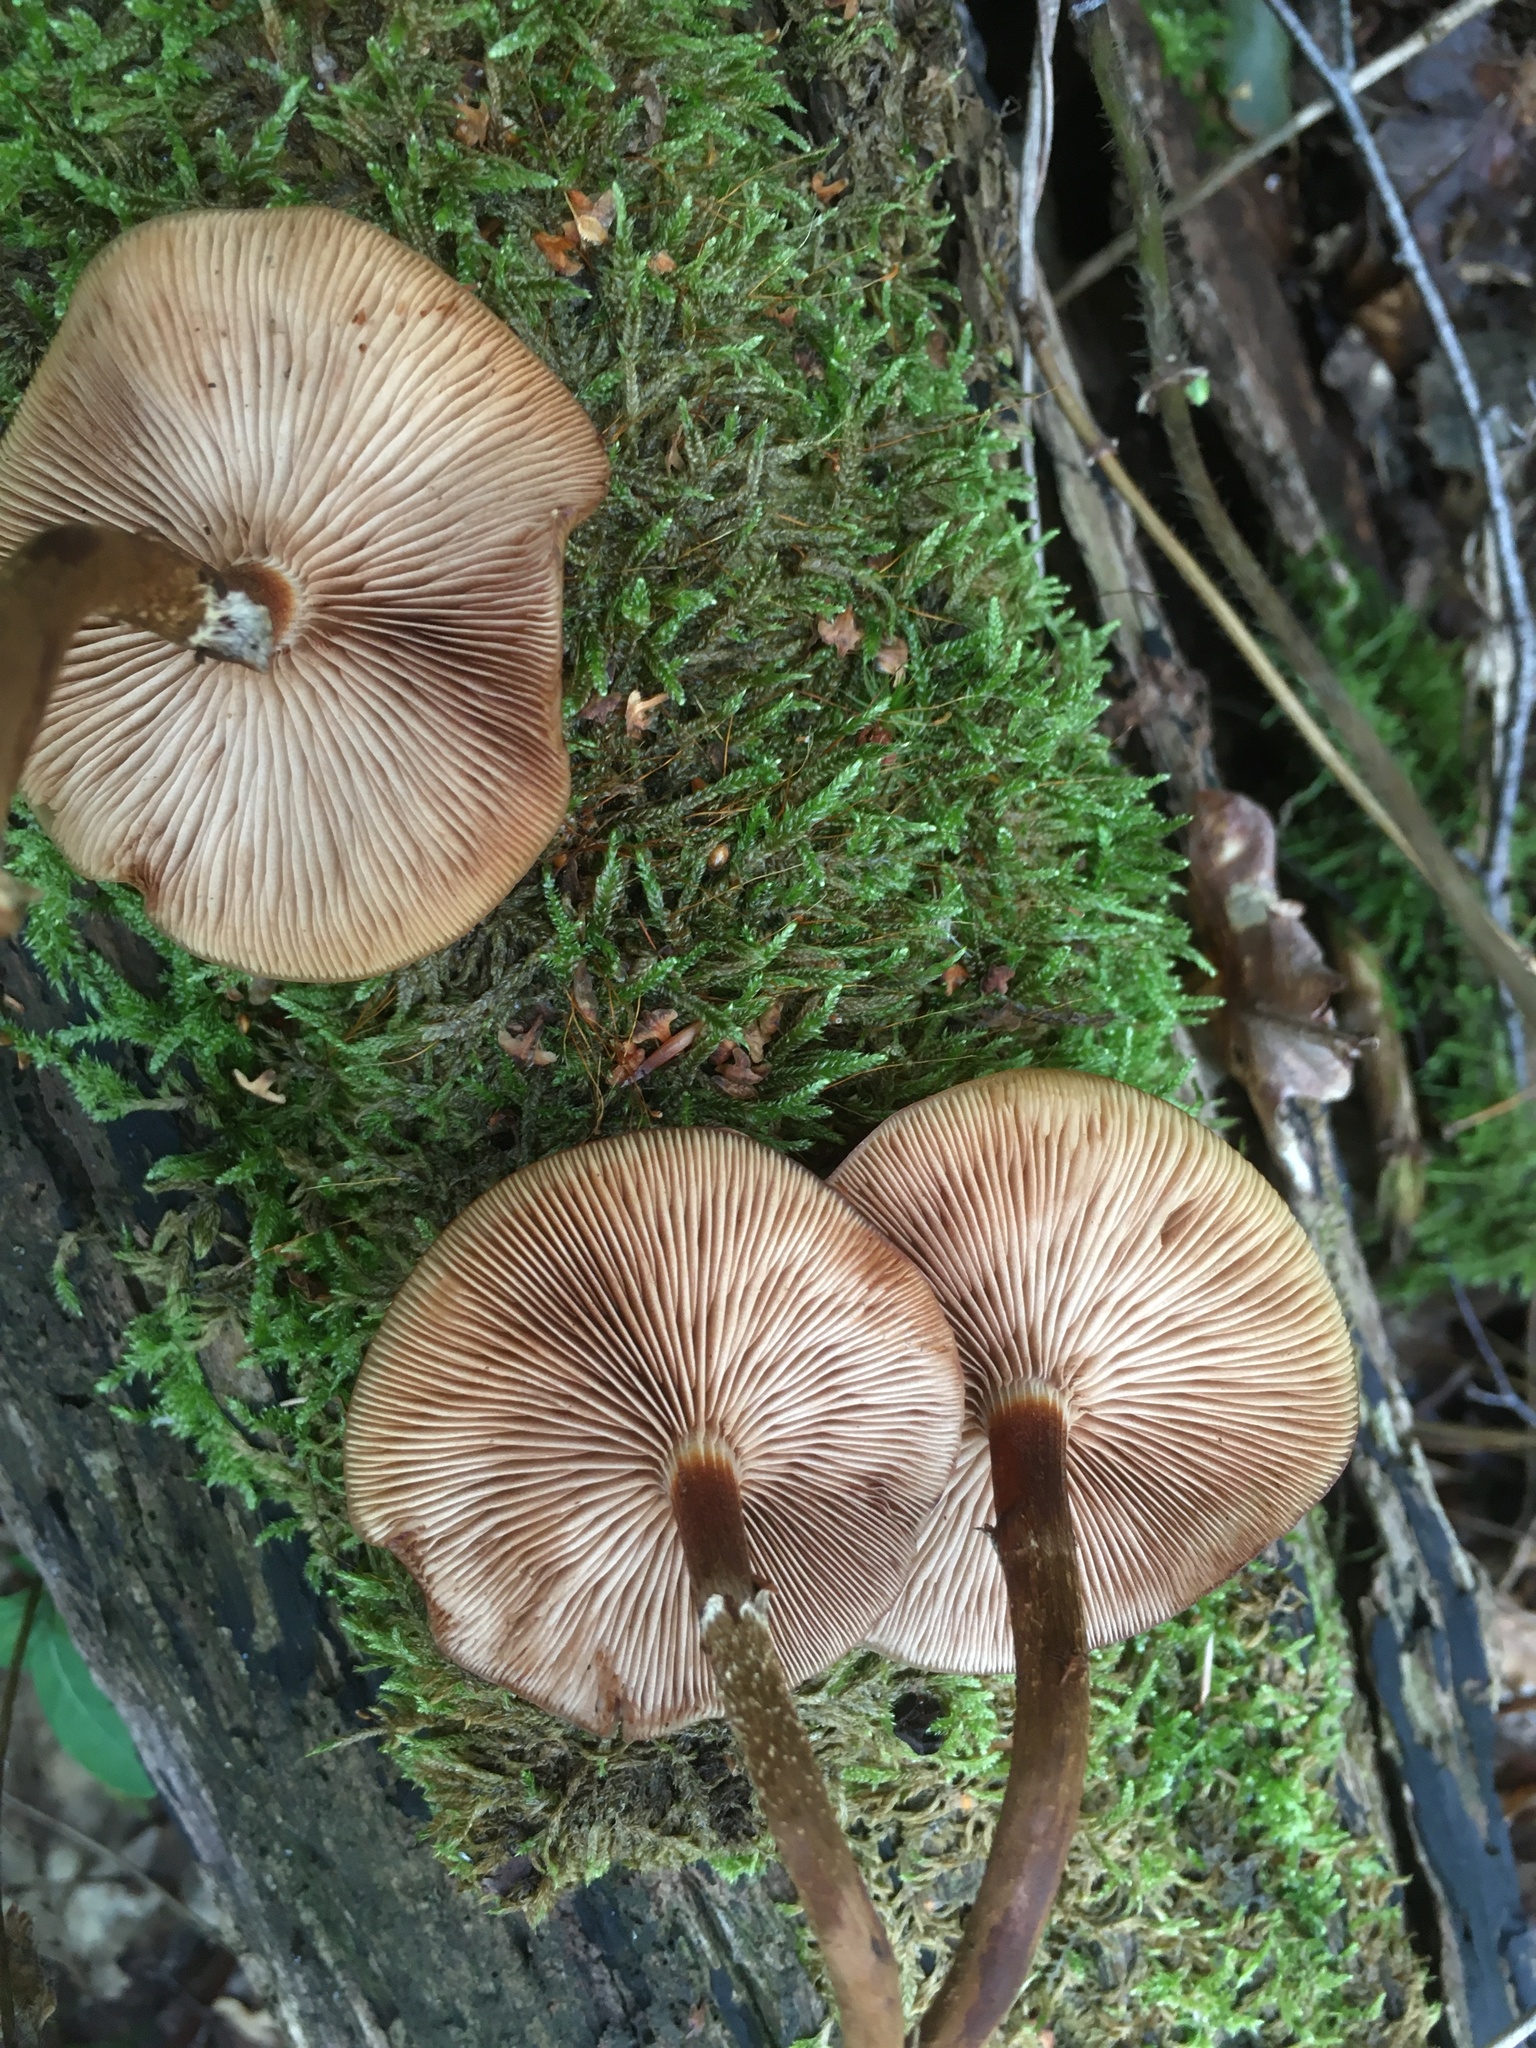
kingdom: Fungi
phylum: Basidiomycota
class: Agaricomycetes
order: Agaricales
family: Strophariaceae
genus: Kuehneromyces
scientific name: Kuehneromyces mutabilis
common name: Sheathed woodtuft
